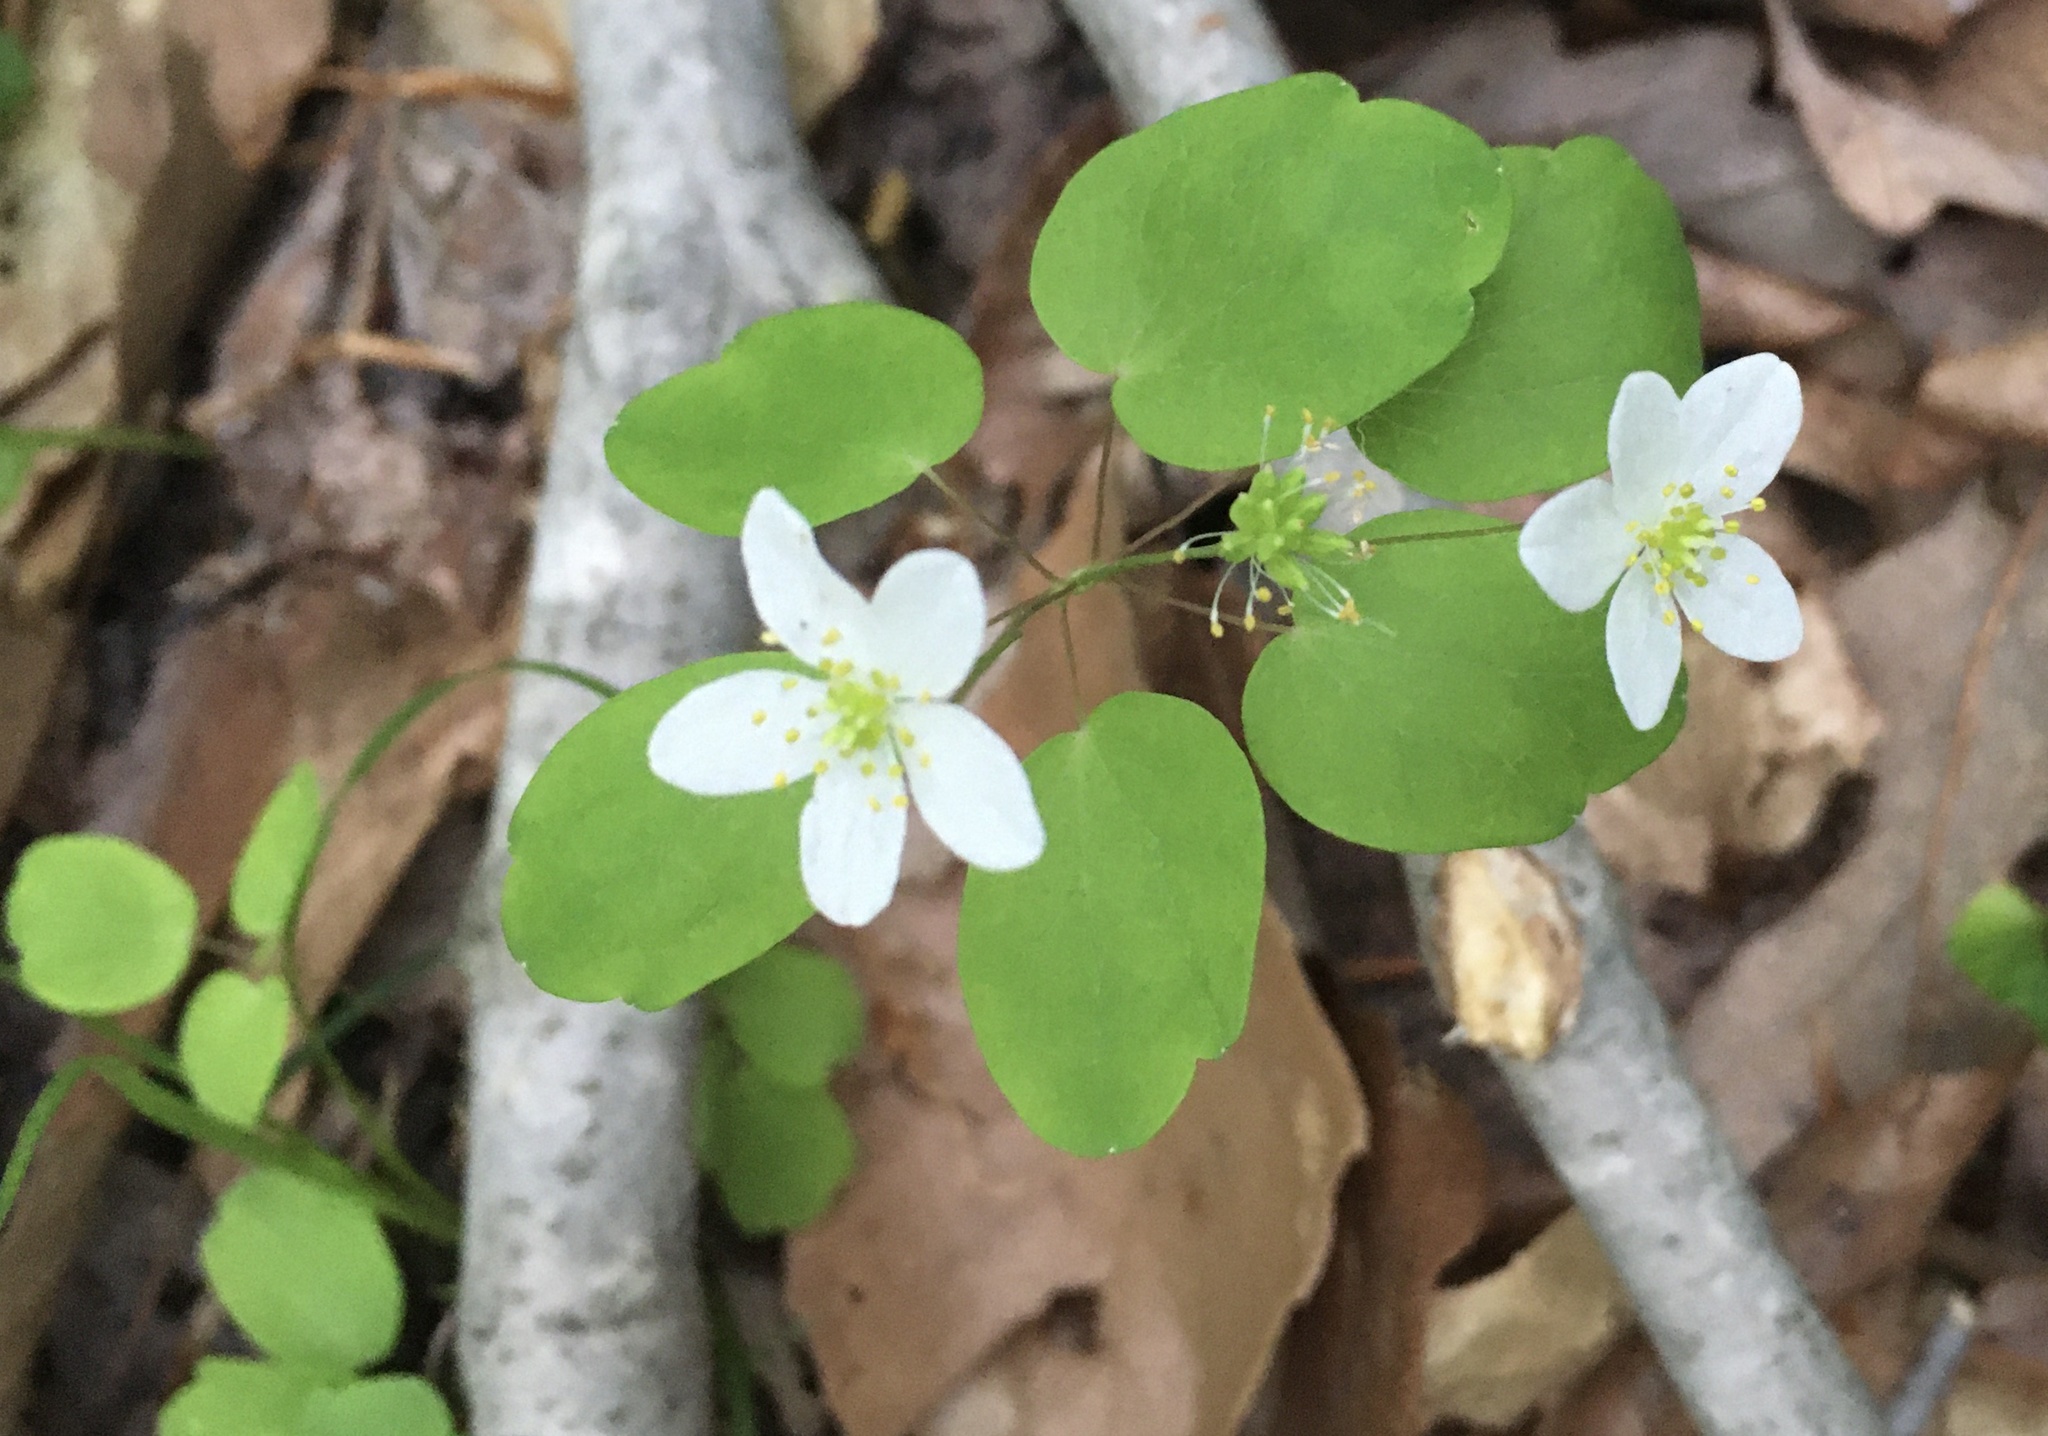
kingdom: Plantae
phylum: Tracheophyta
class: Magnoliopsida
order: Ranunculales
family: Ranunculaceae
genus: Thalictrum
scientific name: Thalictrum thalictroides
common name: Rue-anemone
